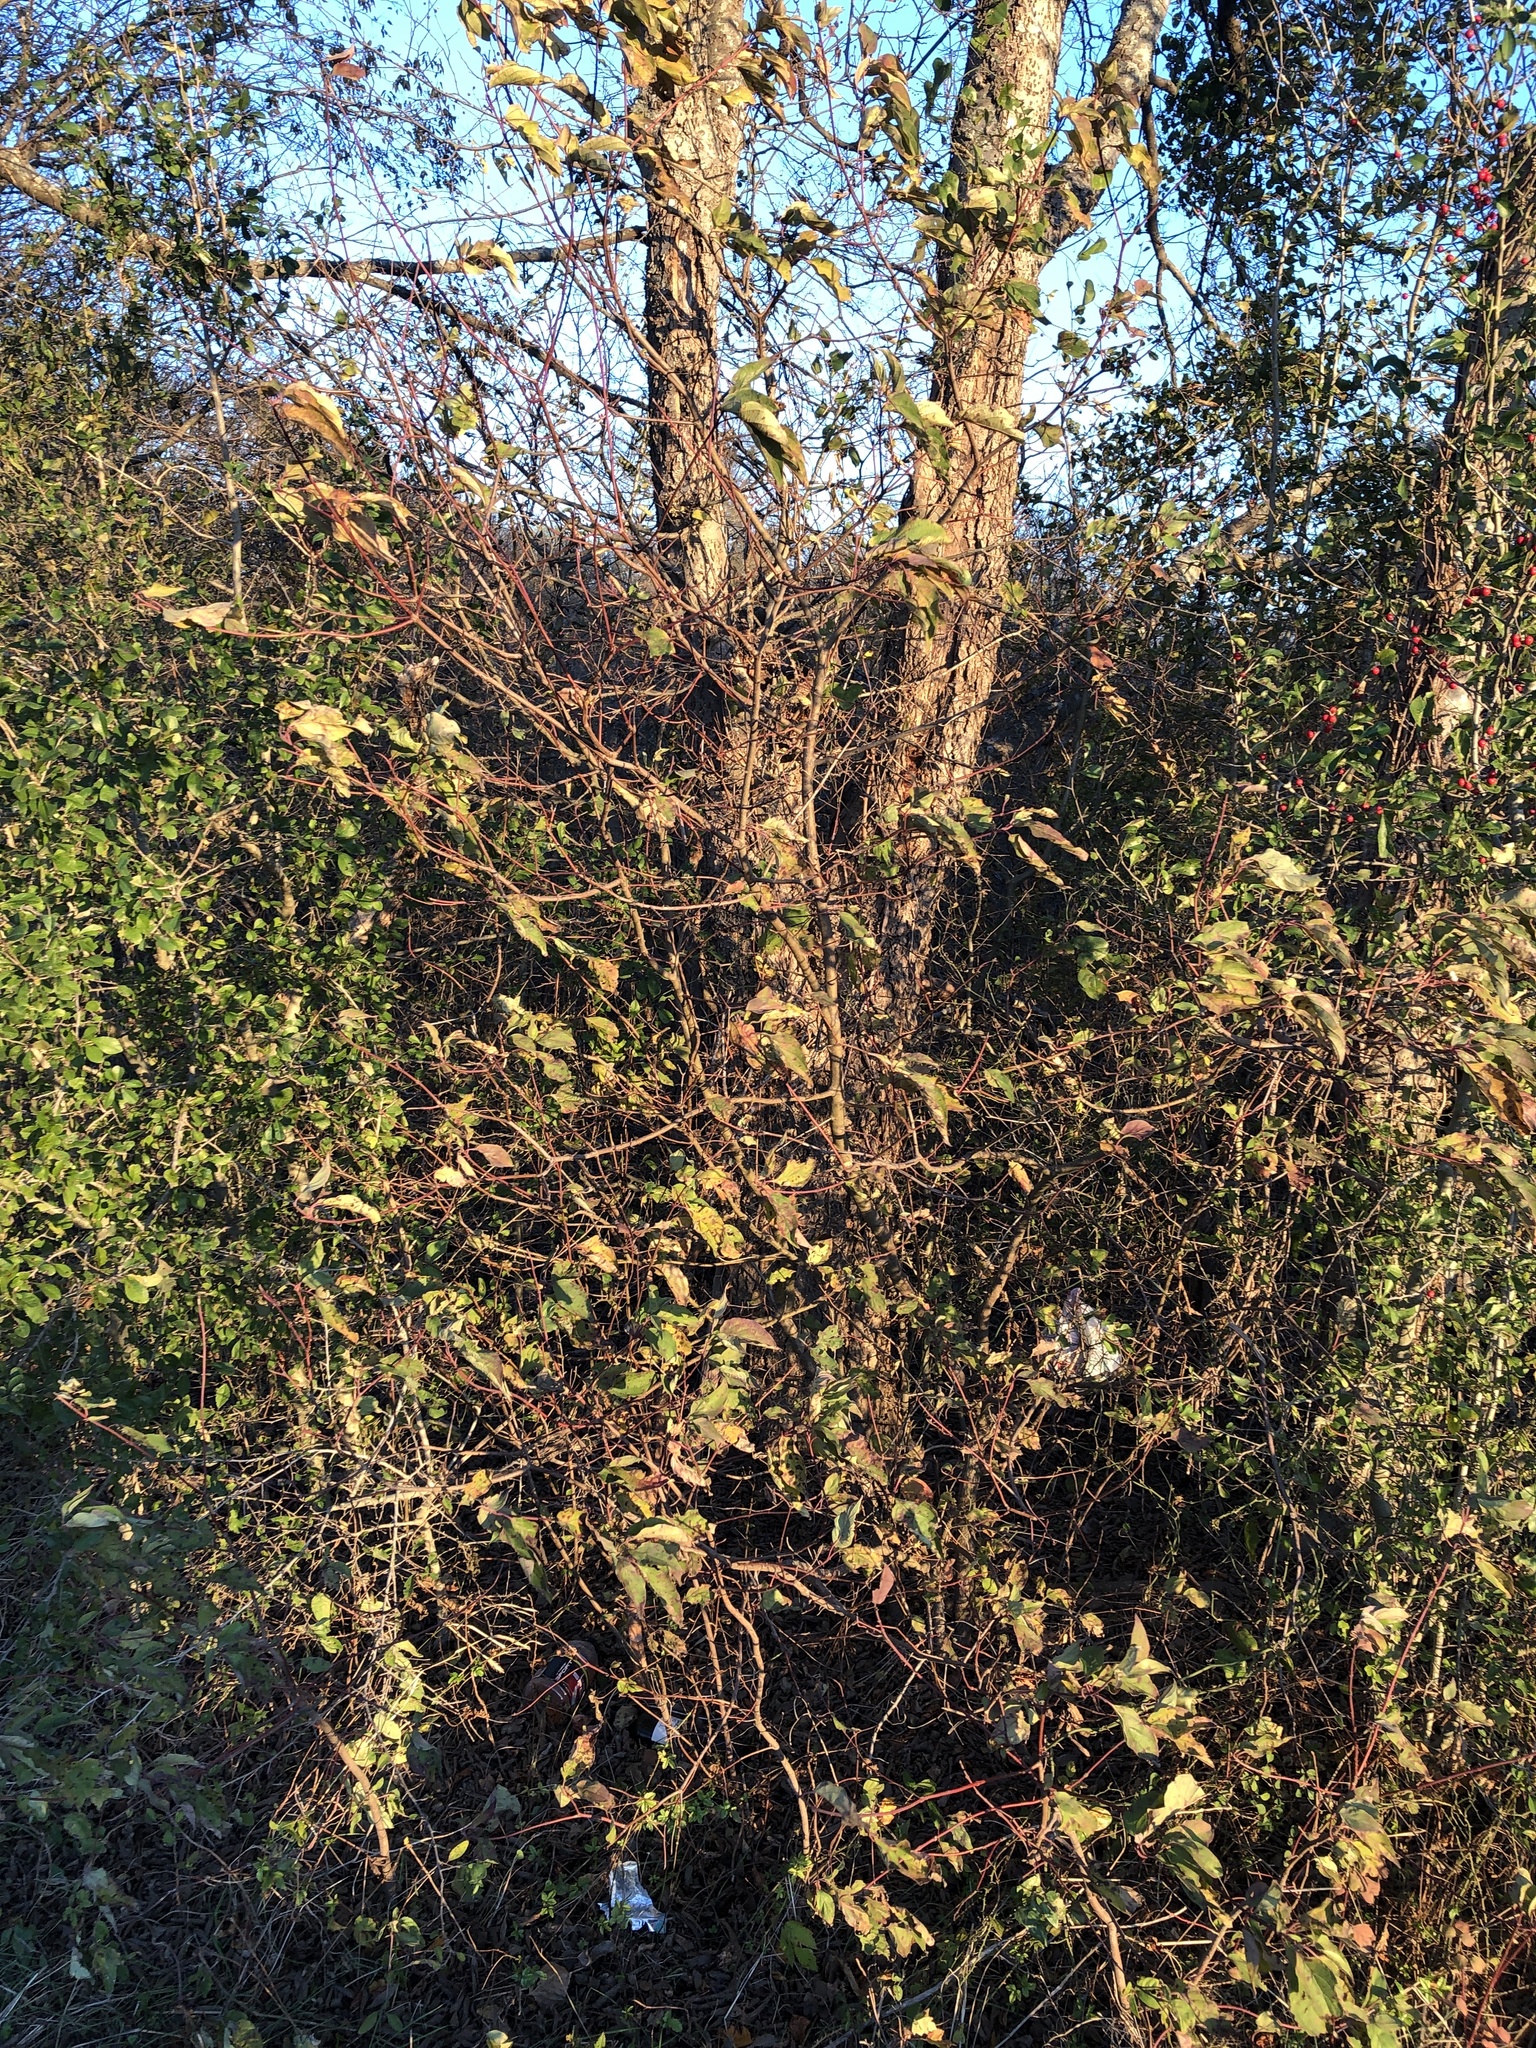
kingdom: Plantae
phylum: Tracheophyta
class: Magnoliopsida
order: Cornales
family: Cornaceae
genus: Cornus
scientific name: Cornus drummondii
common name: Rough-leaf dogwood
